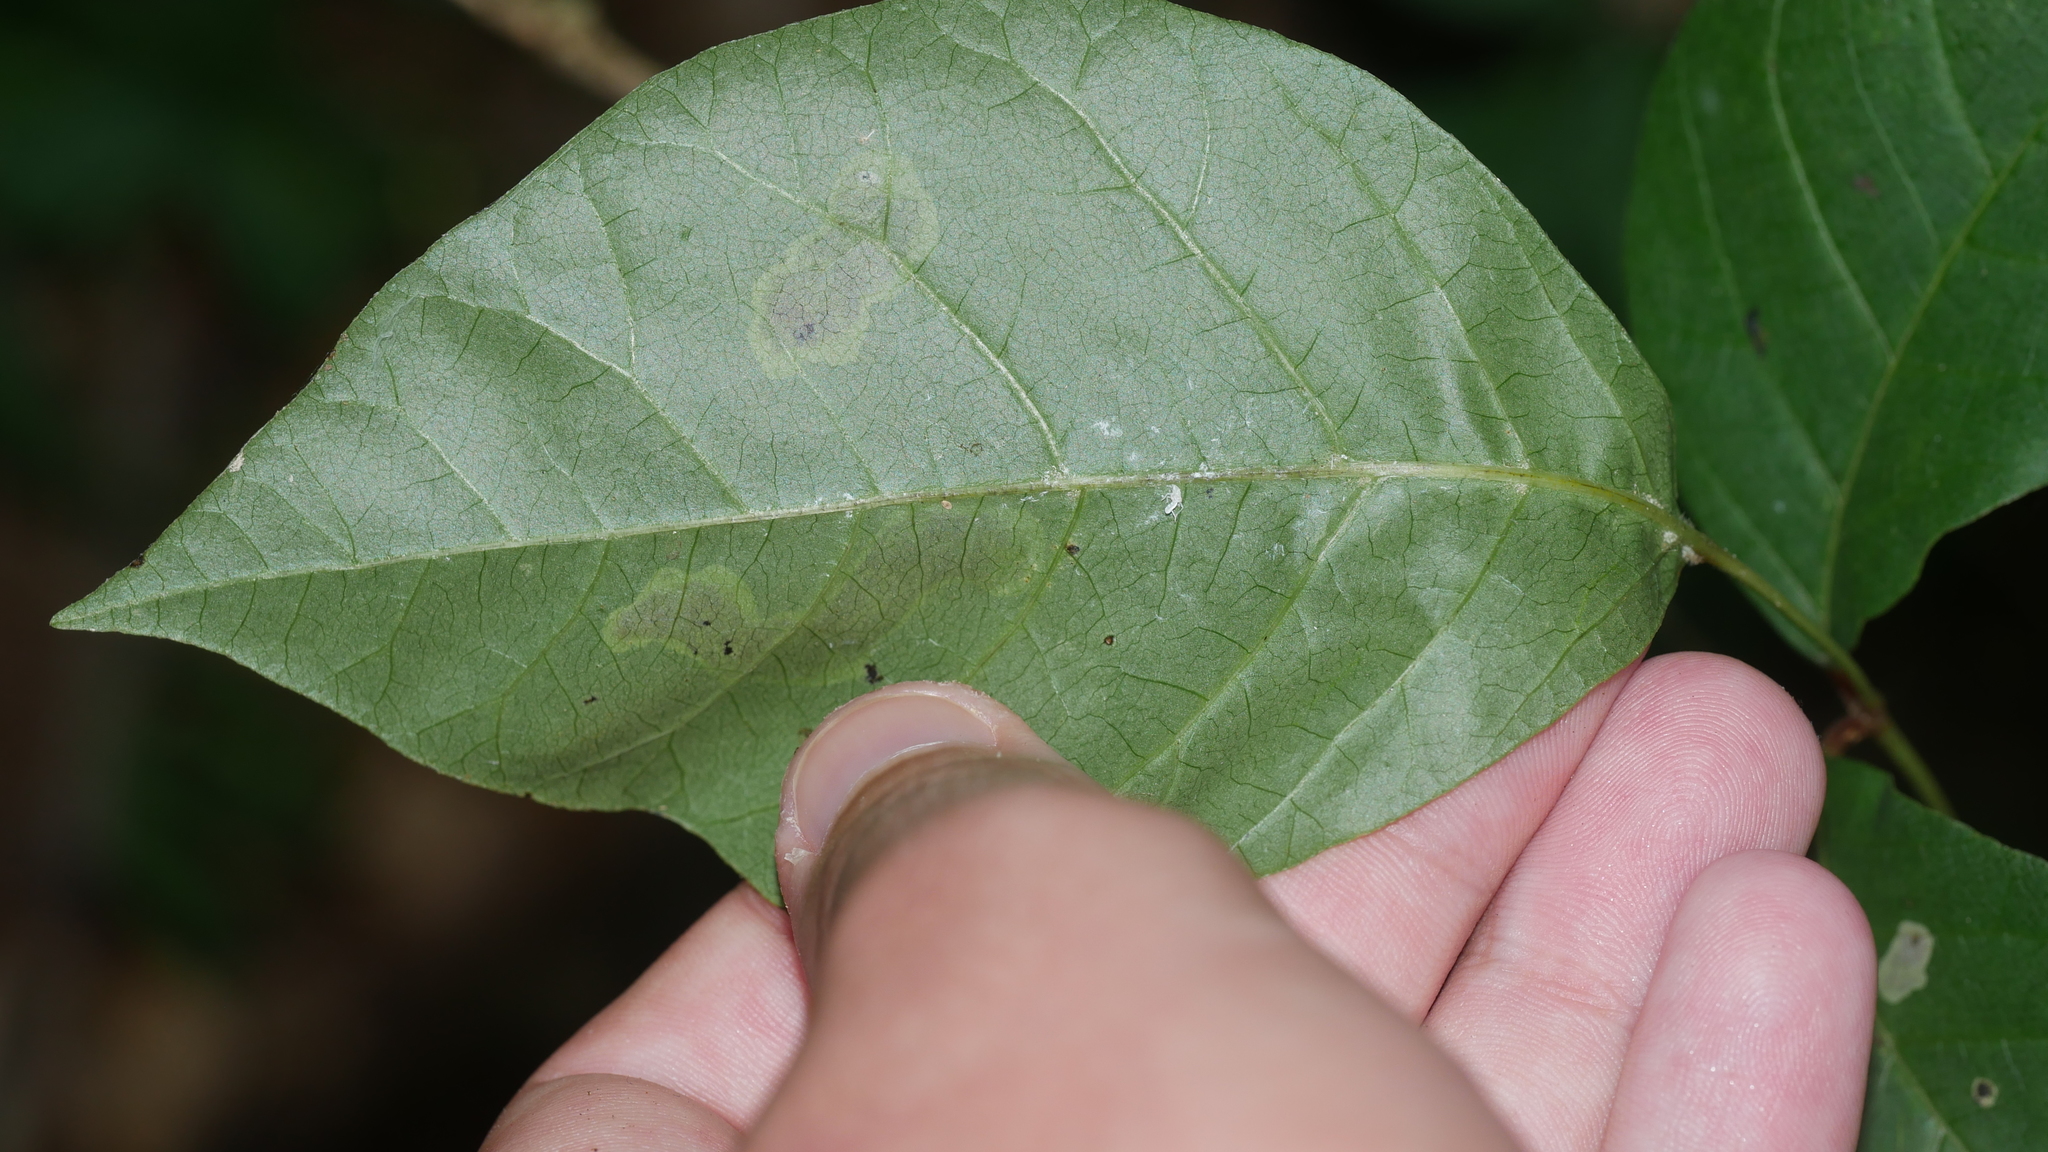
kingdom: Animalia
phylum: Arthropoda
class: Insecta
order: Lepidoptera
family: Gracillariidae
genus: Cameraria
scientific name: Cameraria guttifinitella
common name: Poison ivy leaf-miner moth
